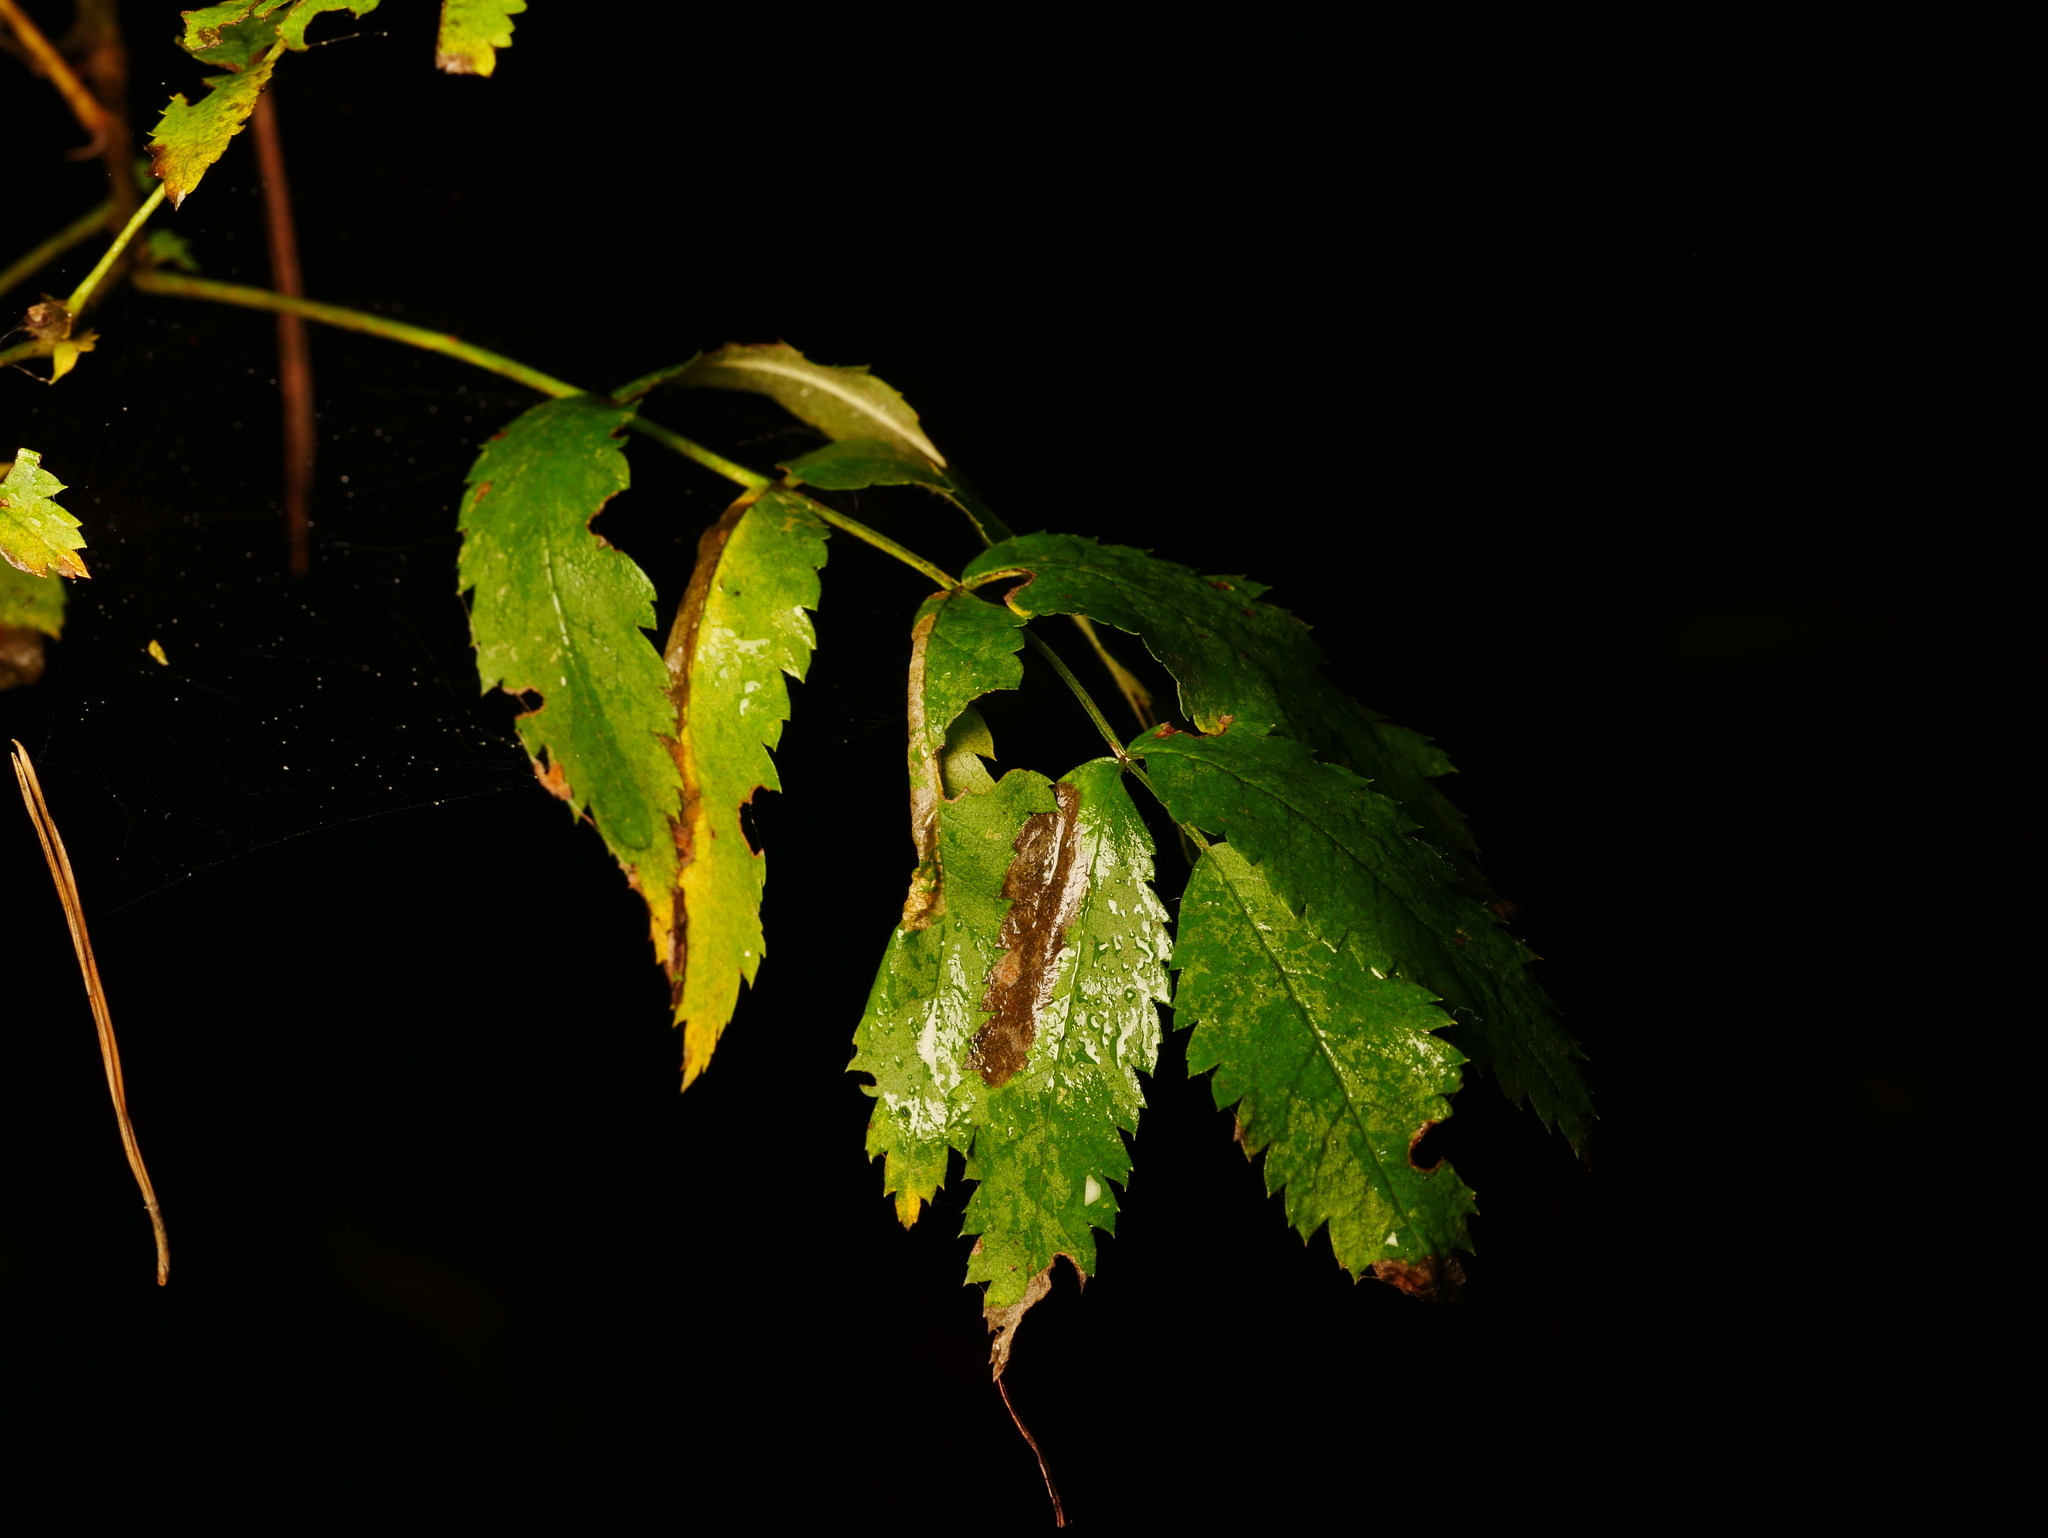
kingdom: Plantae
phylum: Tracheophyta
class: Magnoliopsida
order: Rosales
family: Rosaceae
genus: Sorbus
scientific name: Sorbus aucuparia
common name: Rowan
